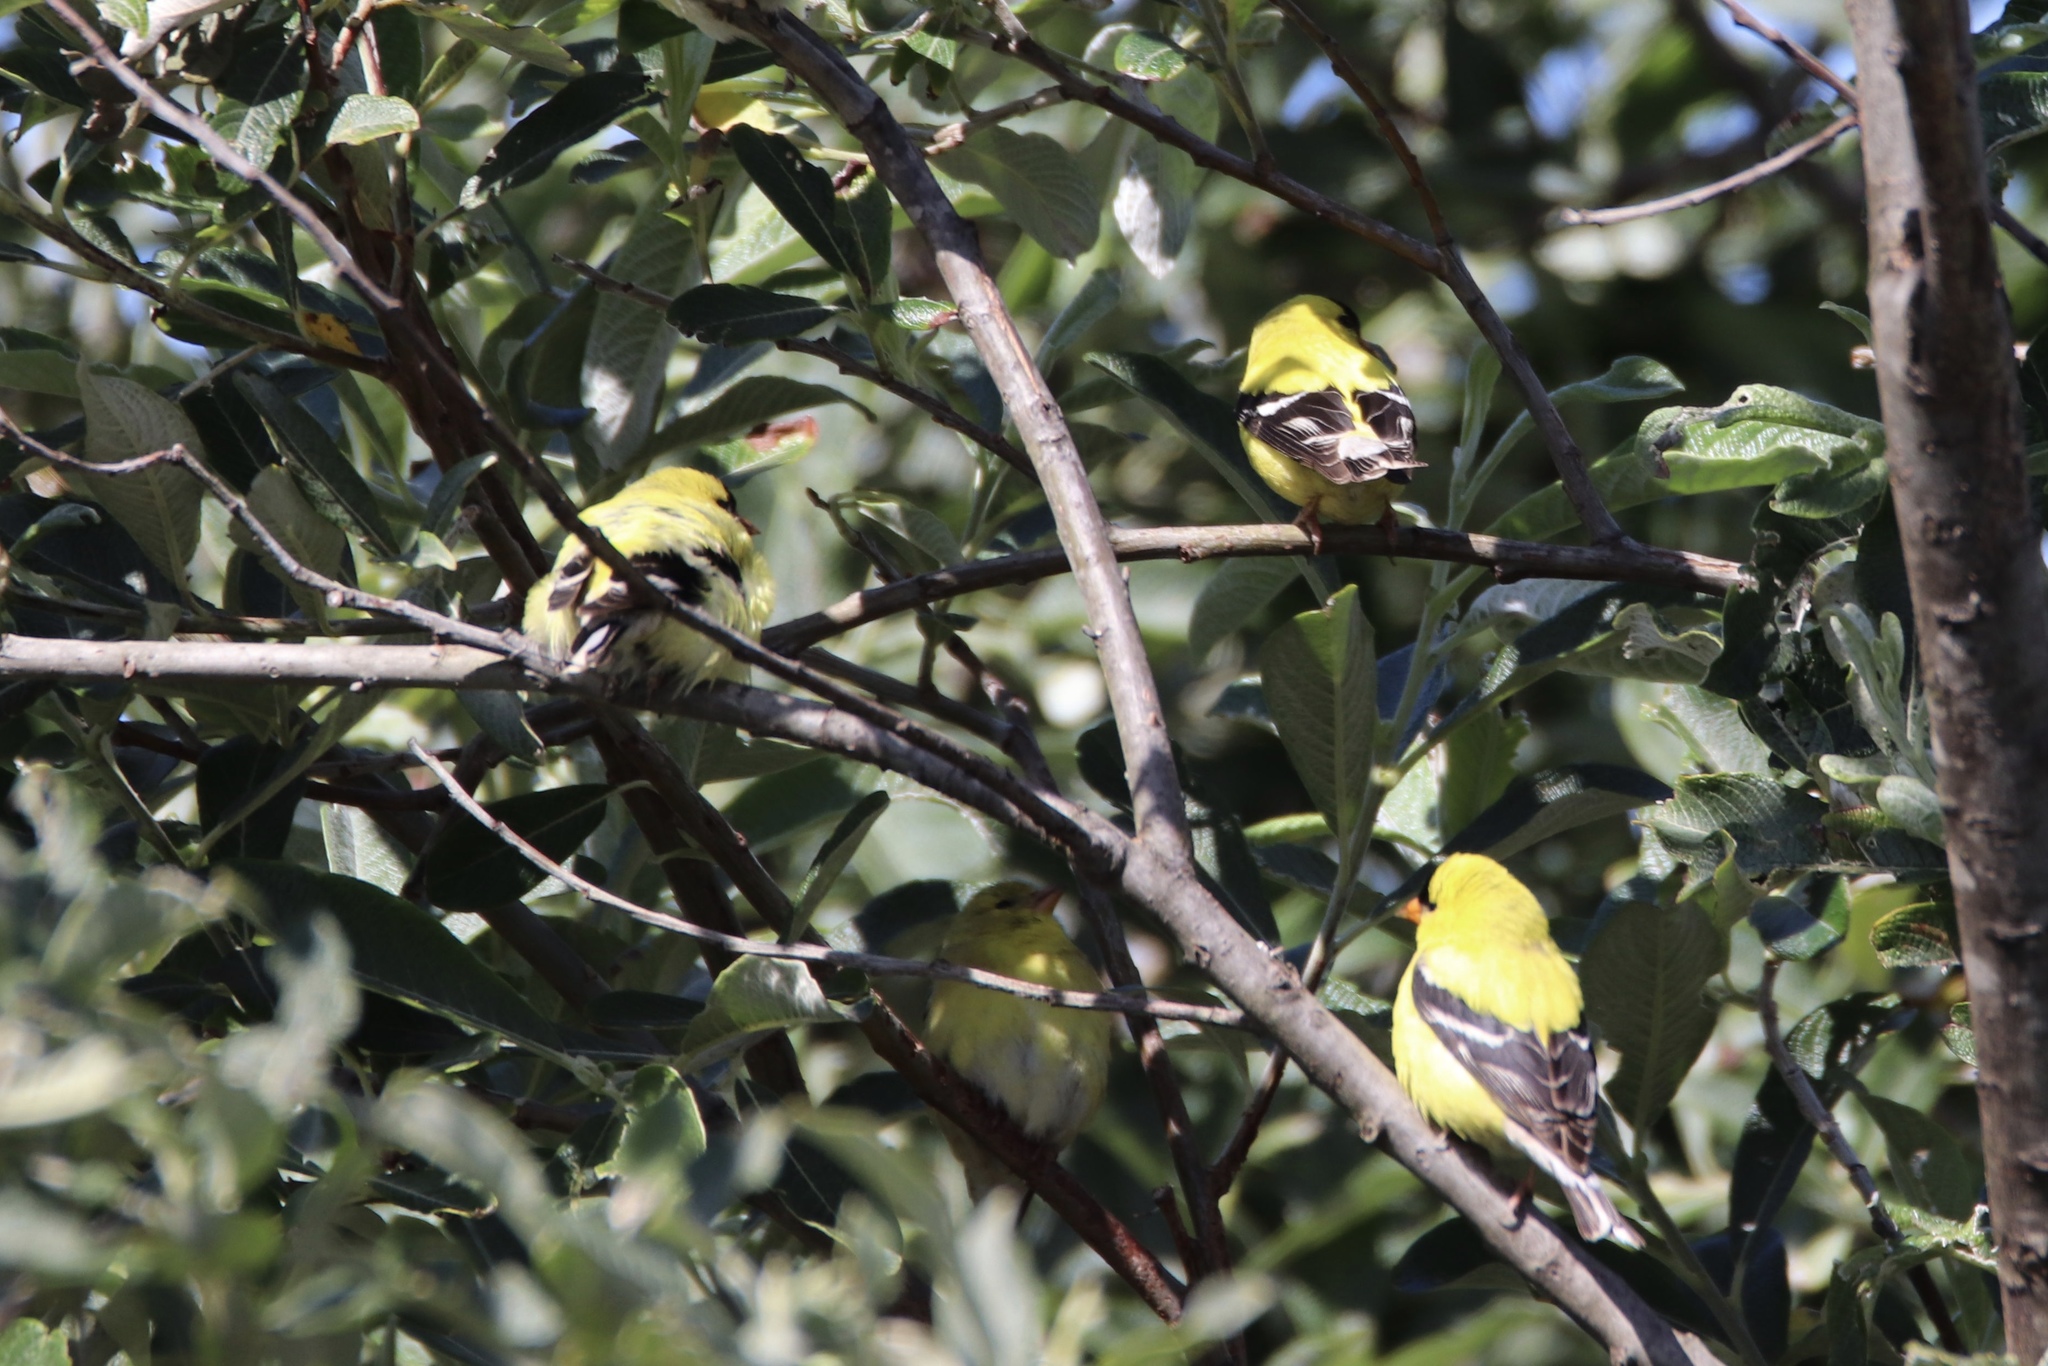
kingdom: Animalia
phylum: Chordata
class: Aves
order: Passeriformes
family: Fringillidae
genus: Spinus
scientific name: Spinus tristis
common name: American goldfinch
